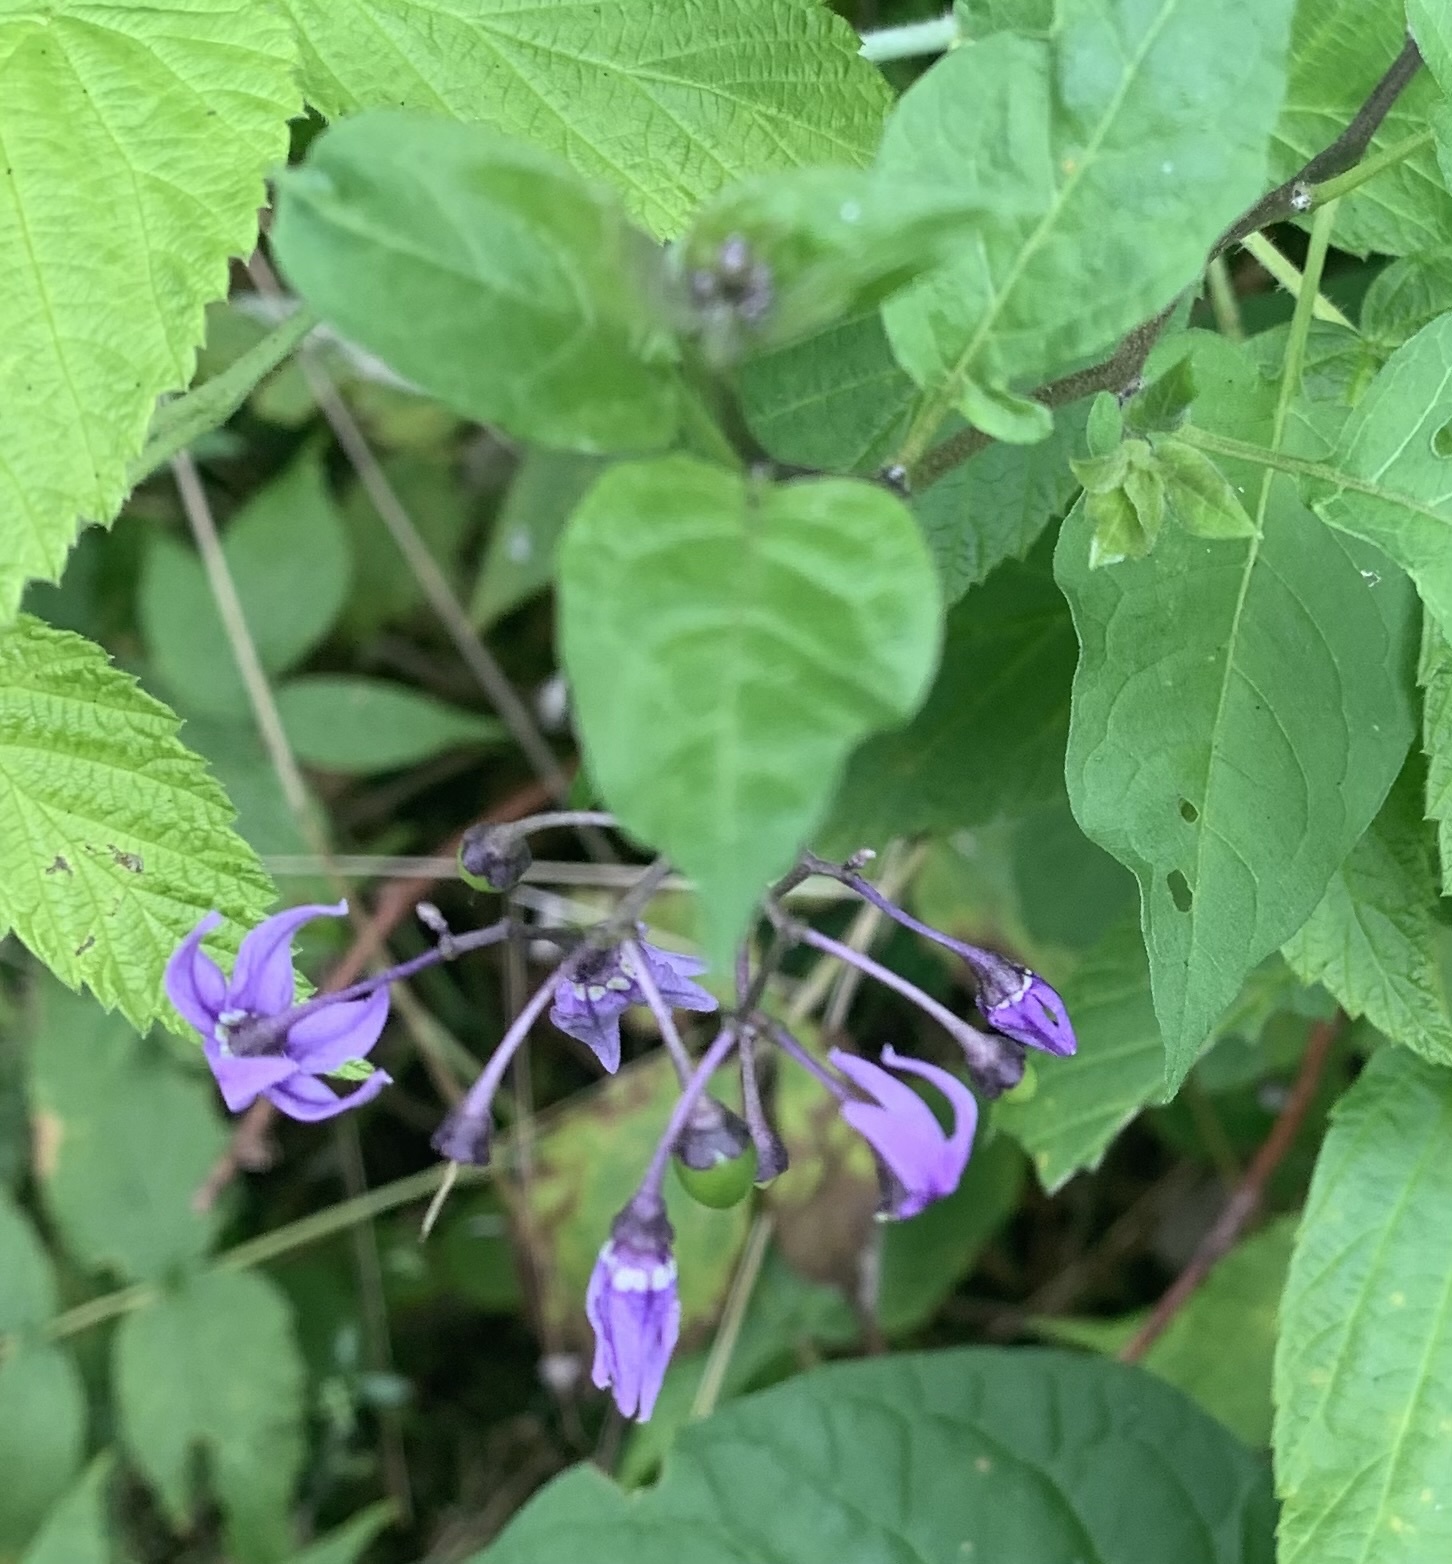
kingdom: Plantae
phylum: Tracheophyta
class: Magnoliopsida
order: Solanales
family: Solanaceae
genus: Solanum
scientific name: Solanum dulcamara
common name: Climbing nightshade
